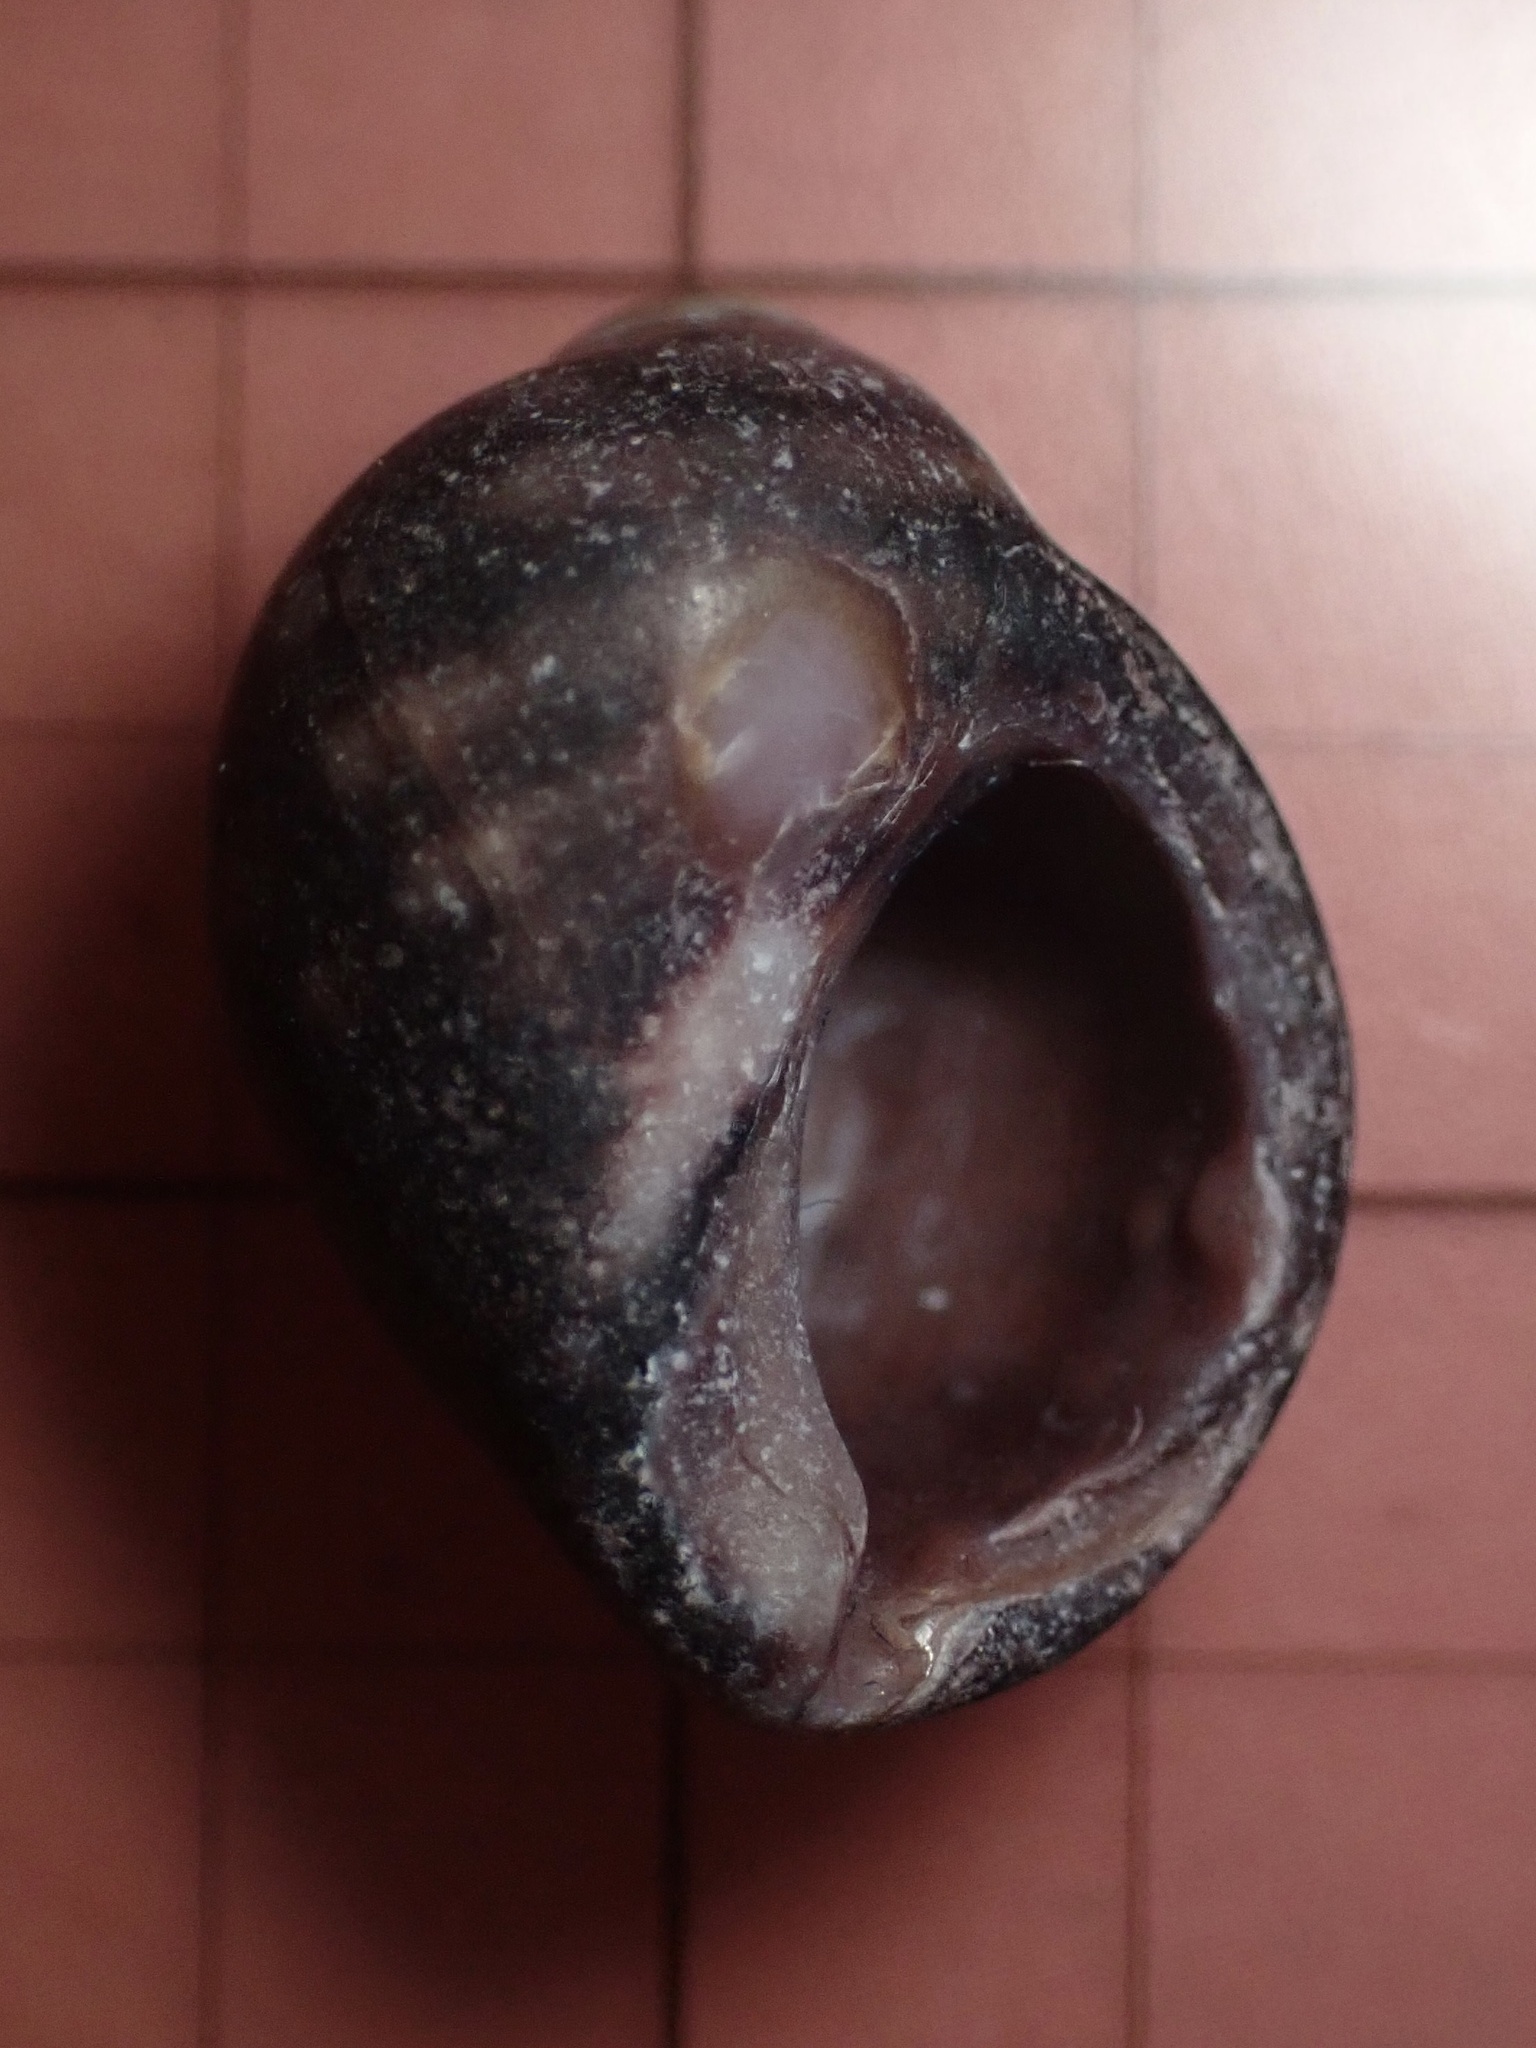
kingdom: Animalia
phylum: Mollusca
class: Gastropoda
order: Neogastropoda
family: Muricidae
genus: Nucella
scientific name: Nucella emarginata
